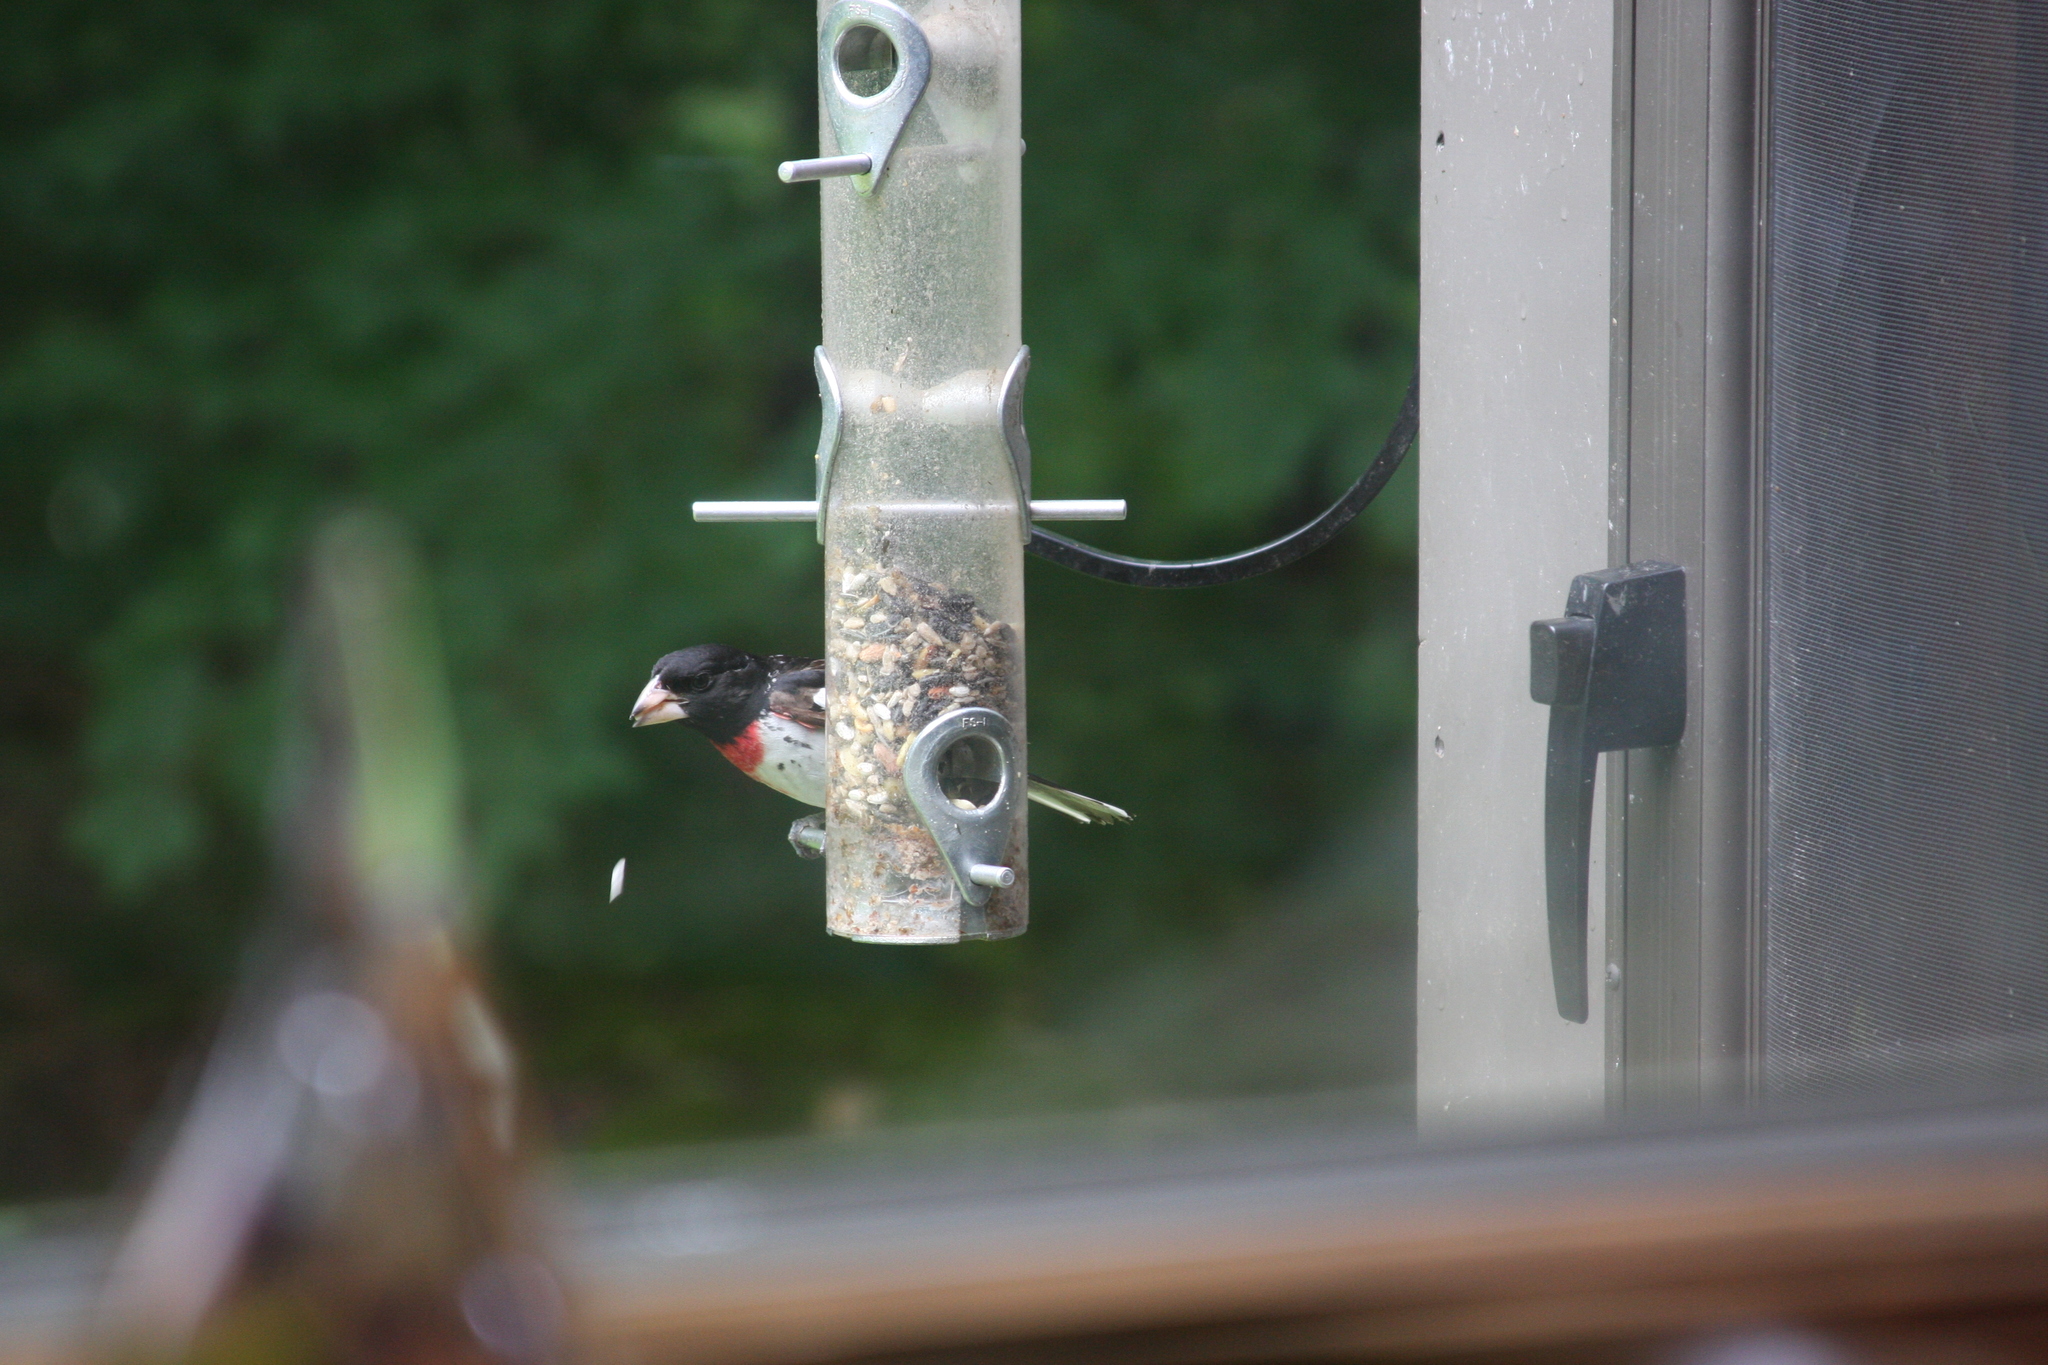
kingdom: Animalia
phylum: Chordata
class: Aves
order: Passeriformes
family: Cardinalidae
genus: Pheucticus
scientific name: Pheucticus ludovicianus
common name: Rose-breasted grosbeak
